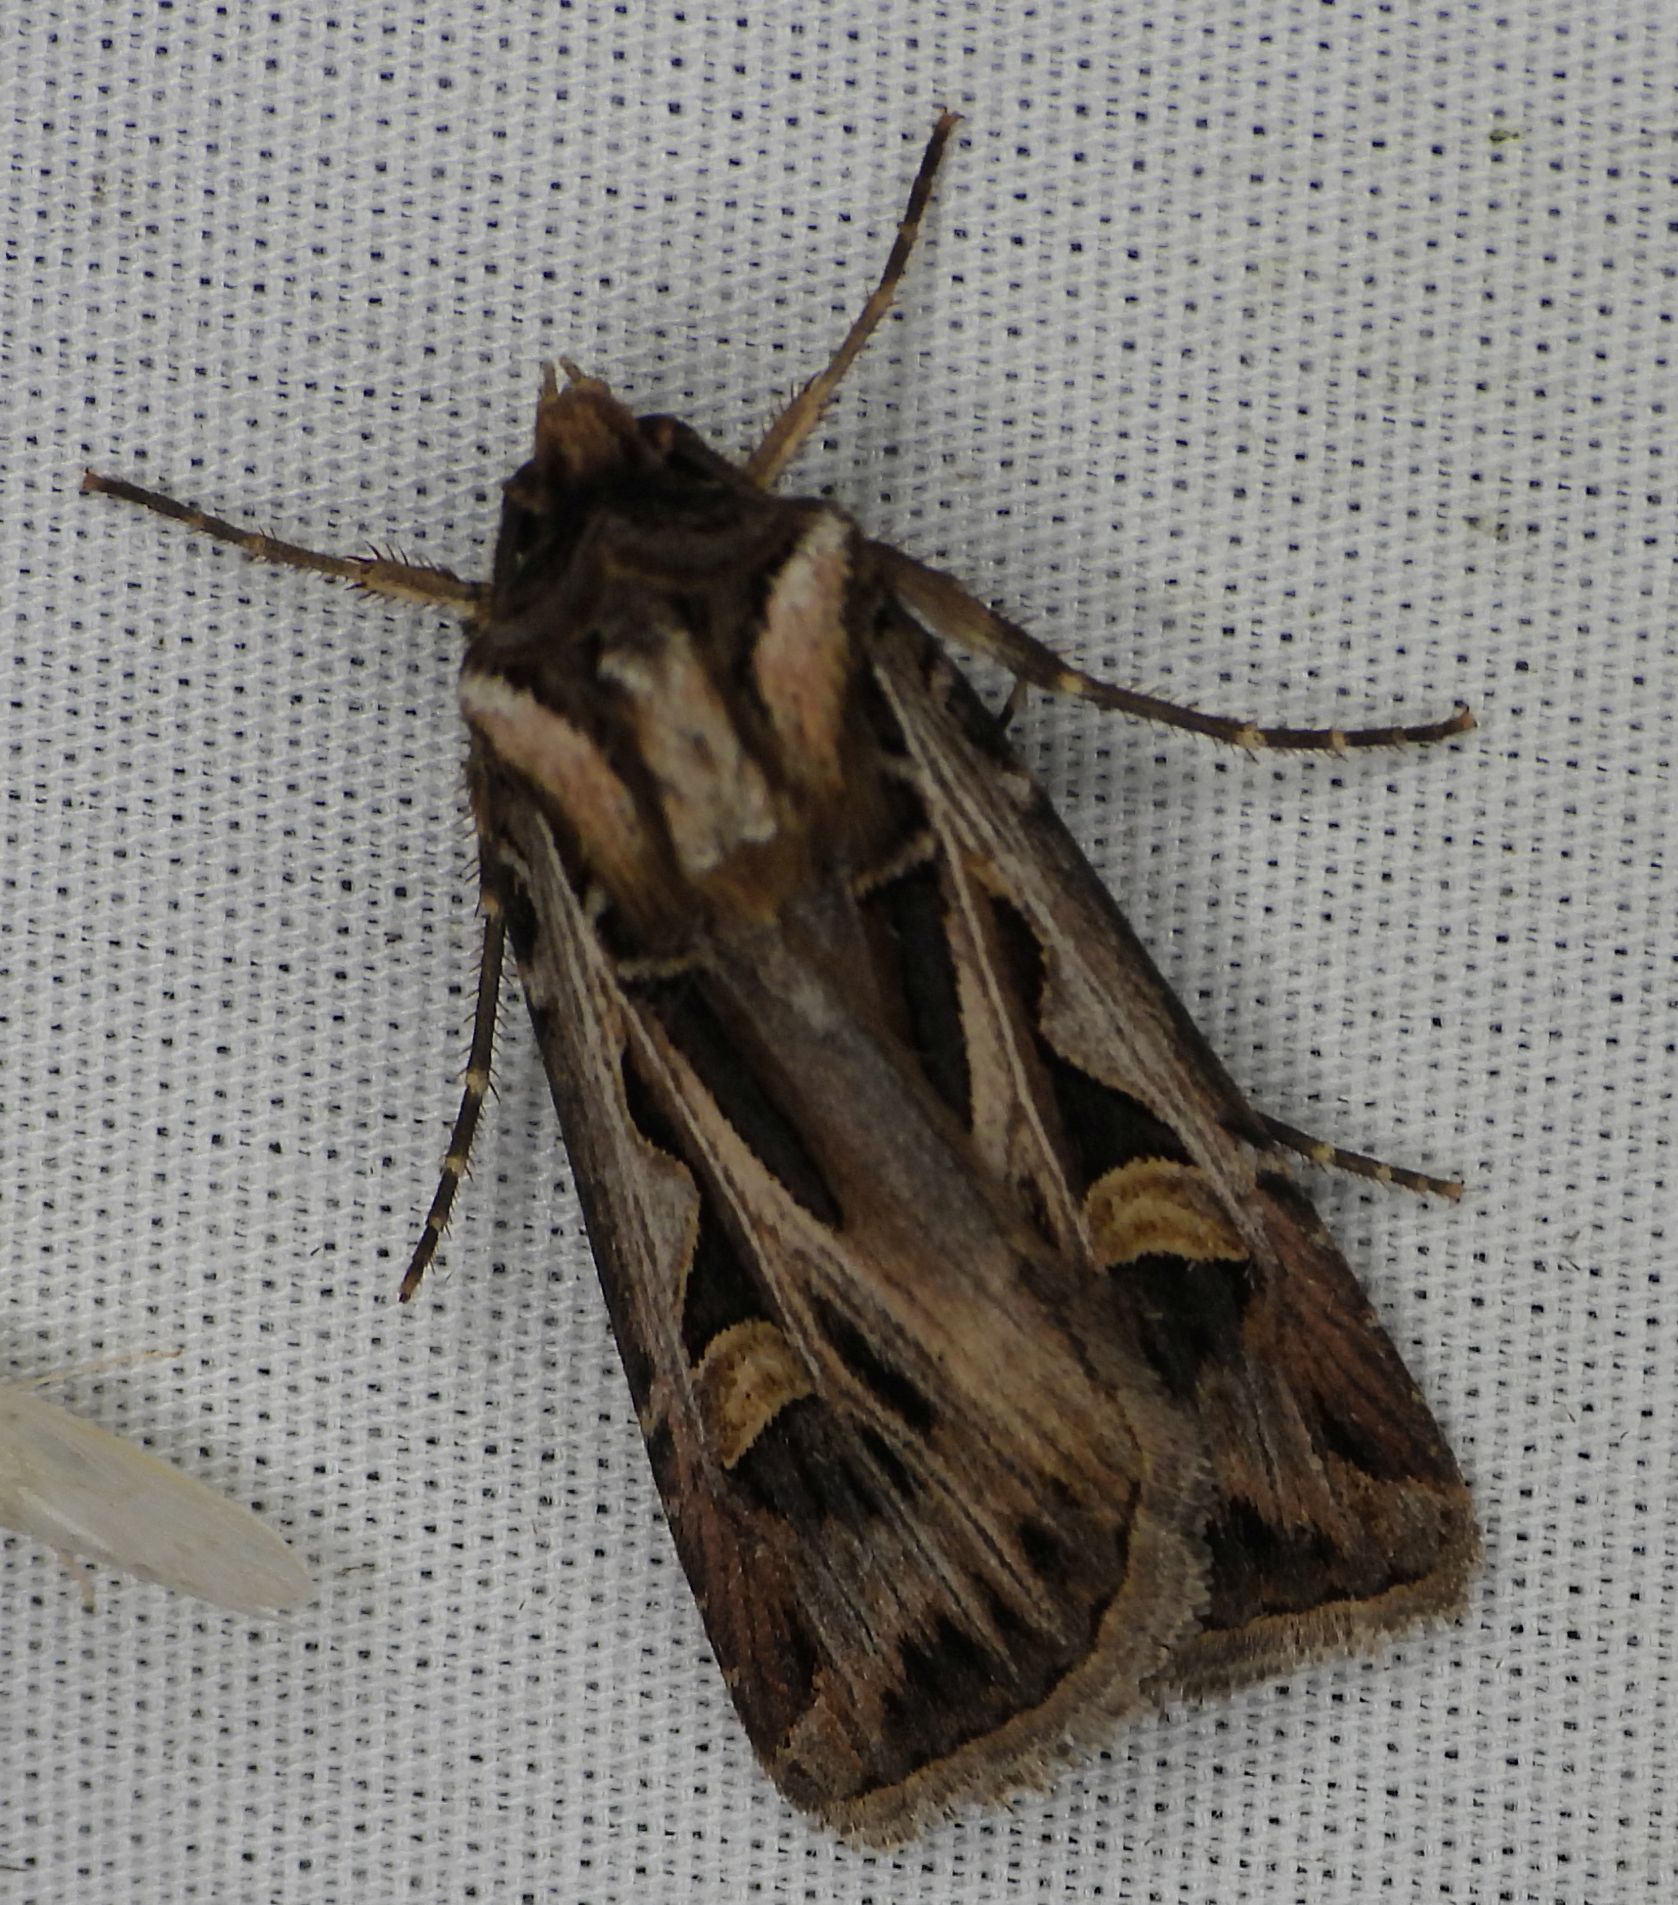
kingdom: Animalia
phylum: Arthropoda
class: Insecta
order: Lepidoptera
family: Noctuidae
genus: Feltia
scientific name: Feltia jaculifera
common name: Dingy cutworm moth
